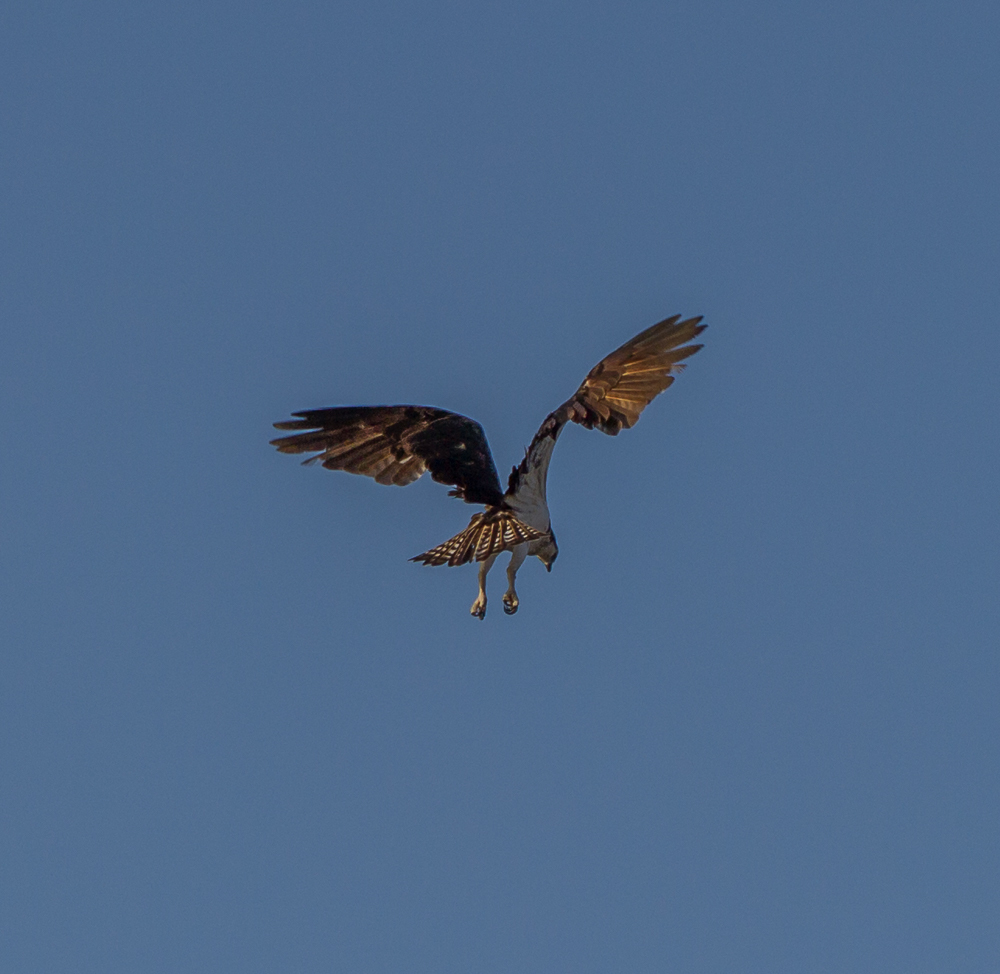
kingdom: Animalia
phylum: Chordata
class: Aves
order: Accipitriformes
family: Pandionidae
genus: Pandion
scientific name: Pandion haliaetus
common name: Osprey
